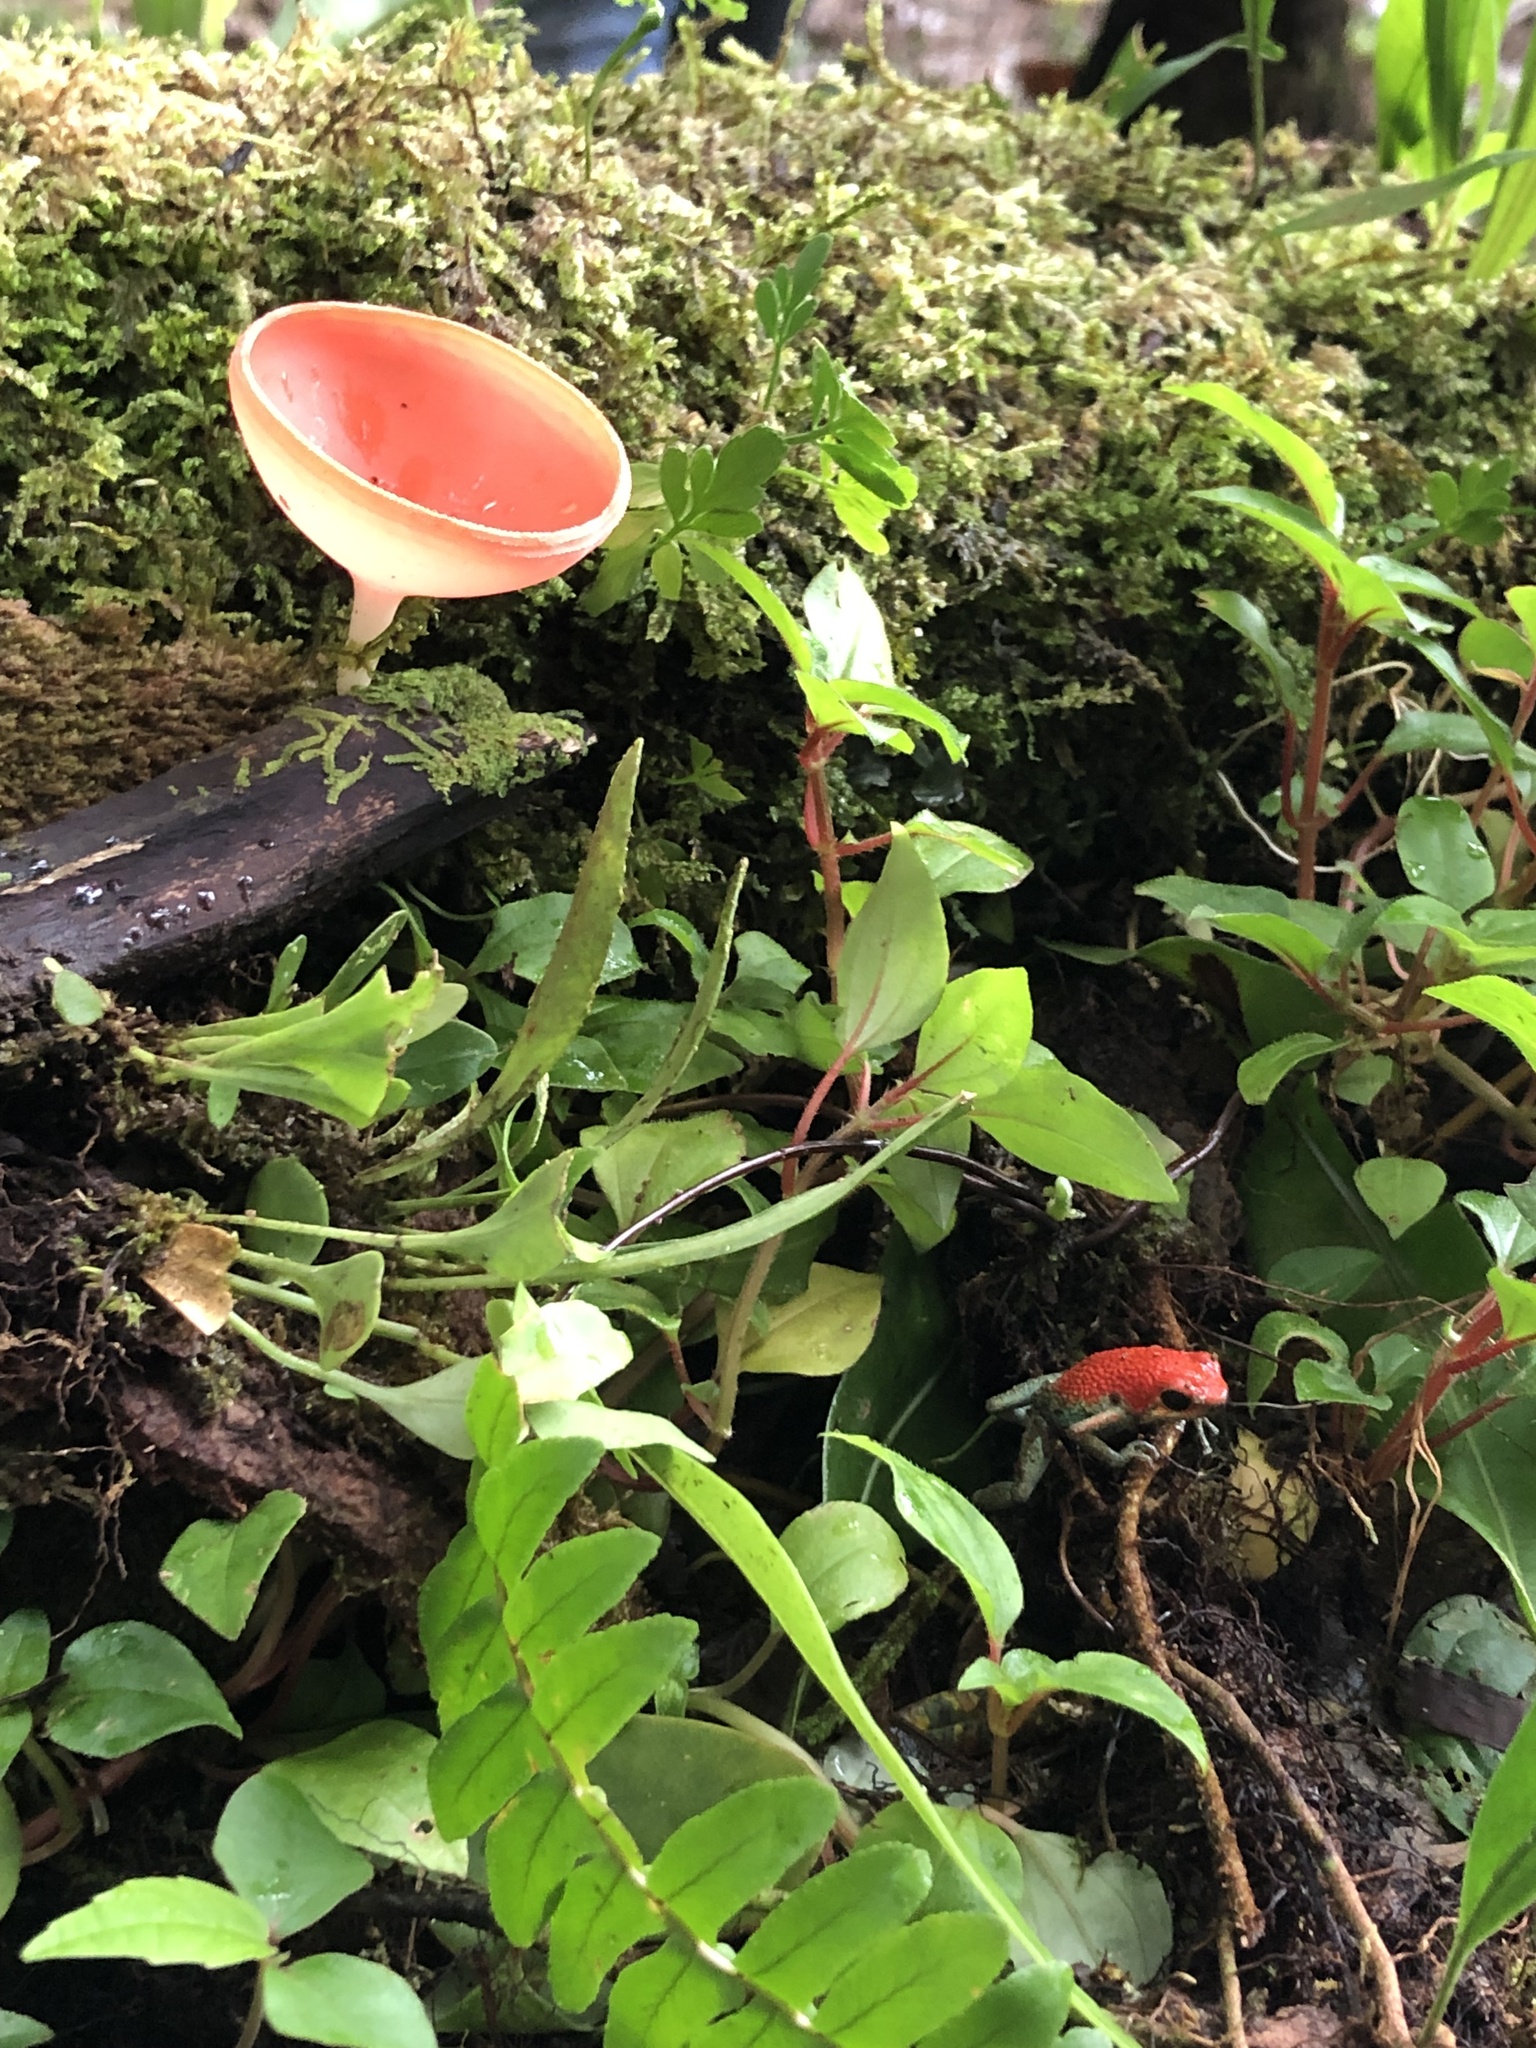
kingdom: Fungi
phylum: Ascomycota
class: Pezizomycetes
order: Pezizales
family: Sarcoscyphaceae
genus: Cookeina
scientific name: Cookeina speciosa
